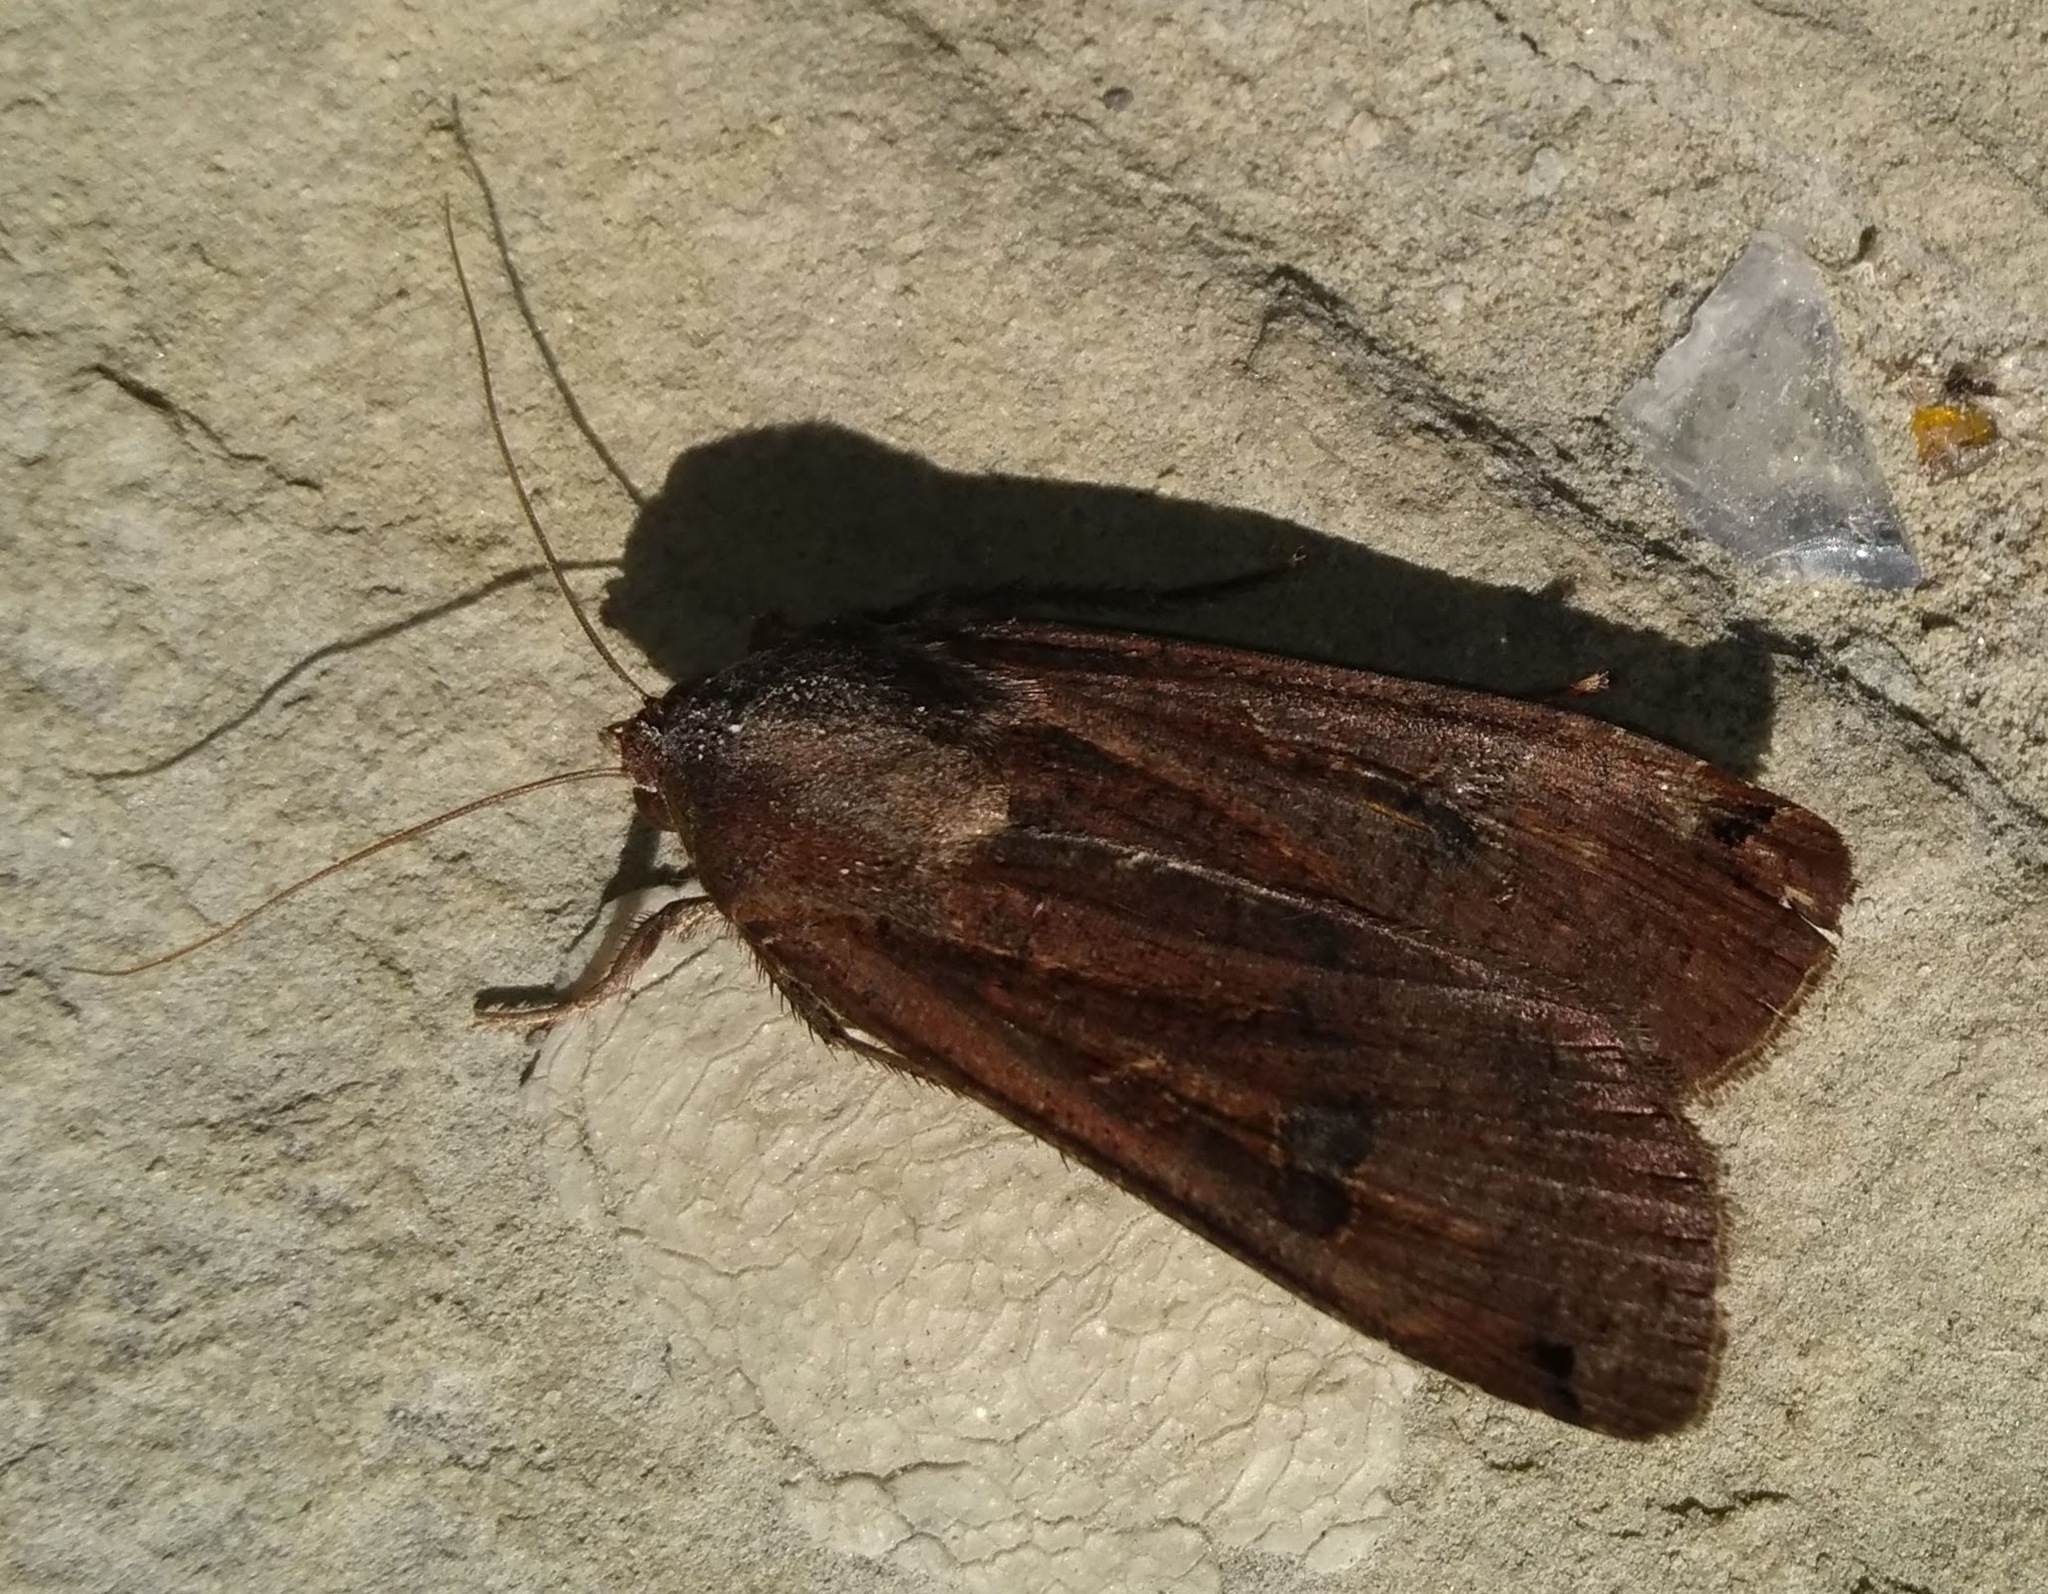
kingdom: Animalia
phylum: Arthropoda
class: Insecta
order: Lepidoptera
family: Noctuidae
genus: Noctua
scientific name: Noctua pronuba
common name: Large yellow underwing
